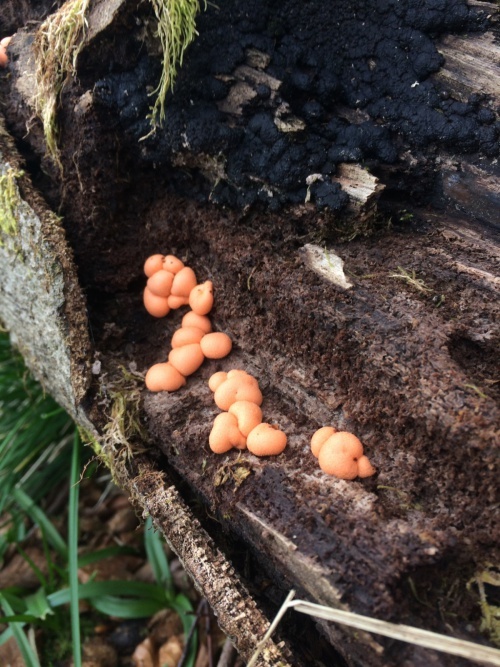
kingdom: Protozoa
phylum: Mycetozoa
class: Myxomycetes
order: Cribrariales
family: Tubiferaceae
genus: Lycogala
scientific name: Lycogala epidendrum
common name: Wolf's milk
